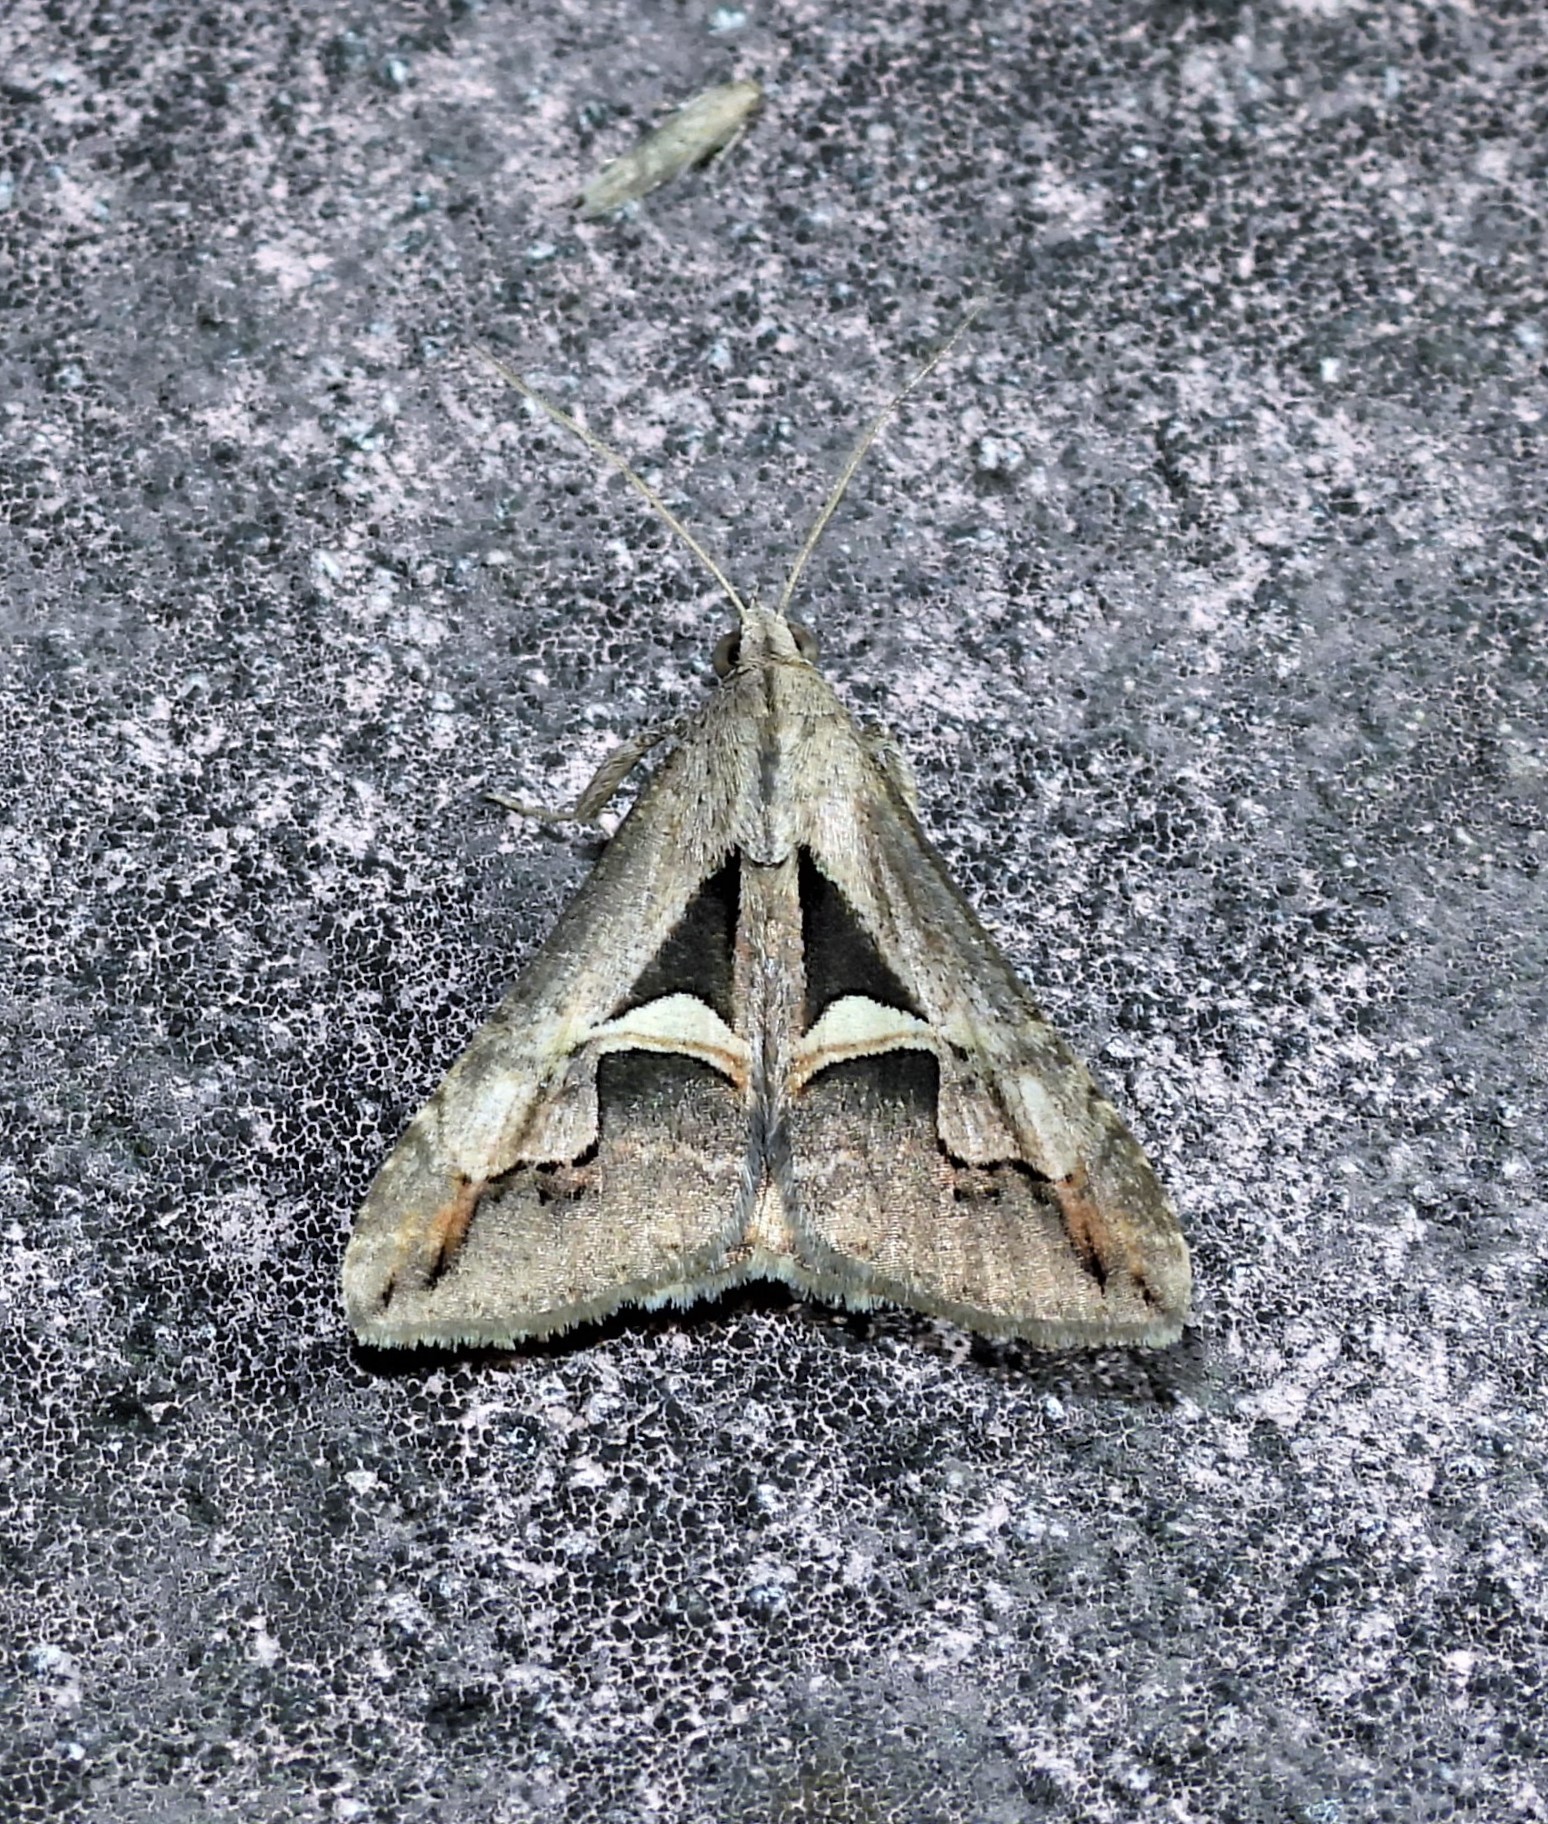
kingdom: Animalia
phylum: Arthropoda
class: Insecta
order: Lepidoptera
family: Erebidae
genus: Melipotis
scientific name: Melipotis cellaris
